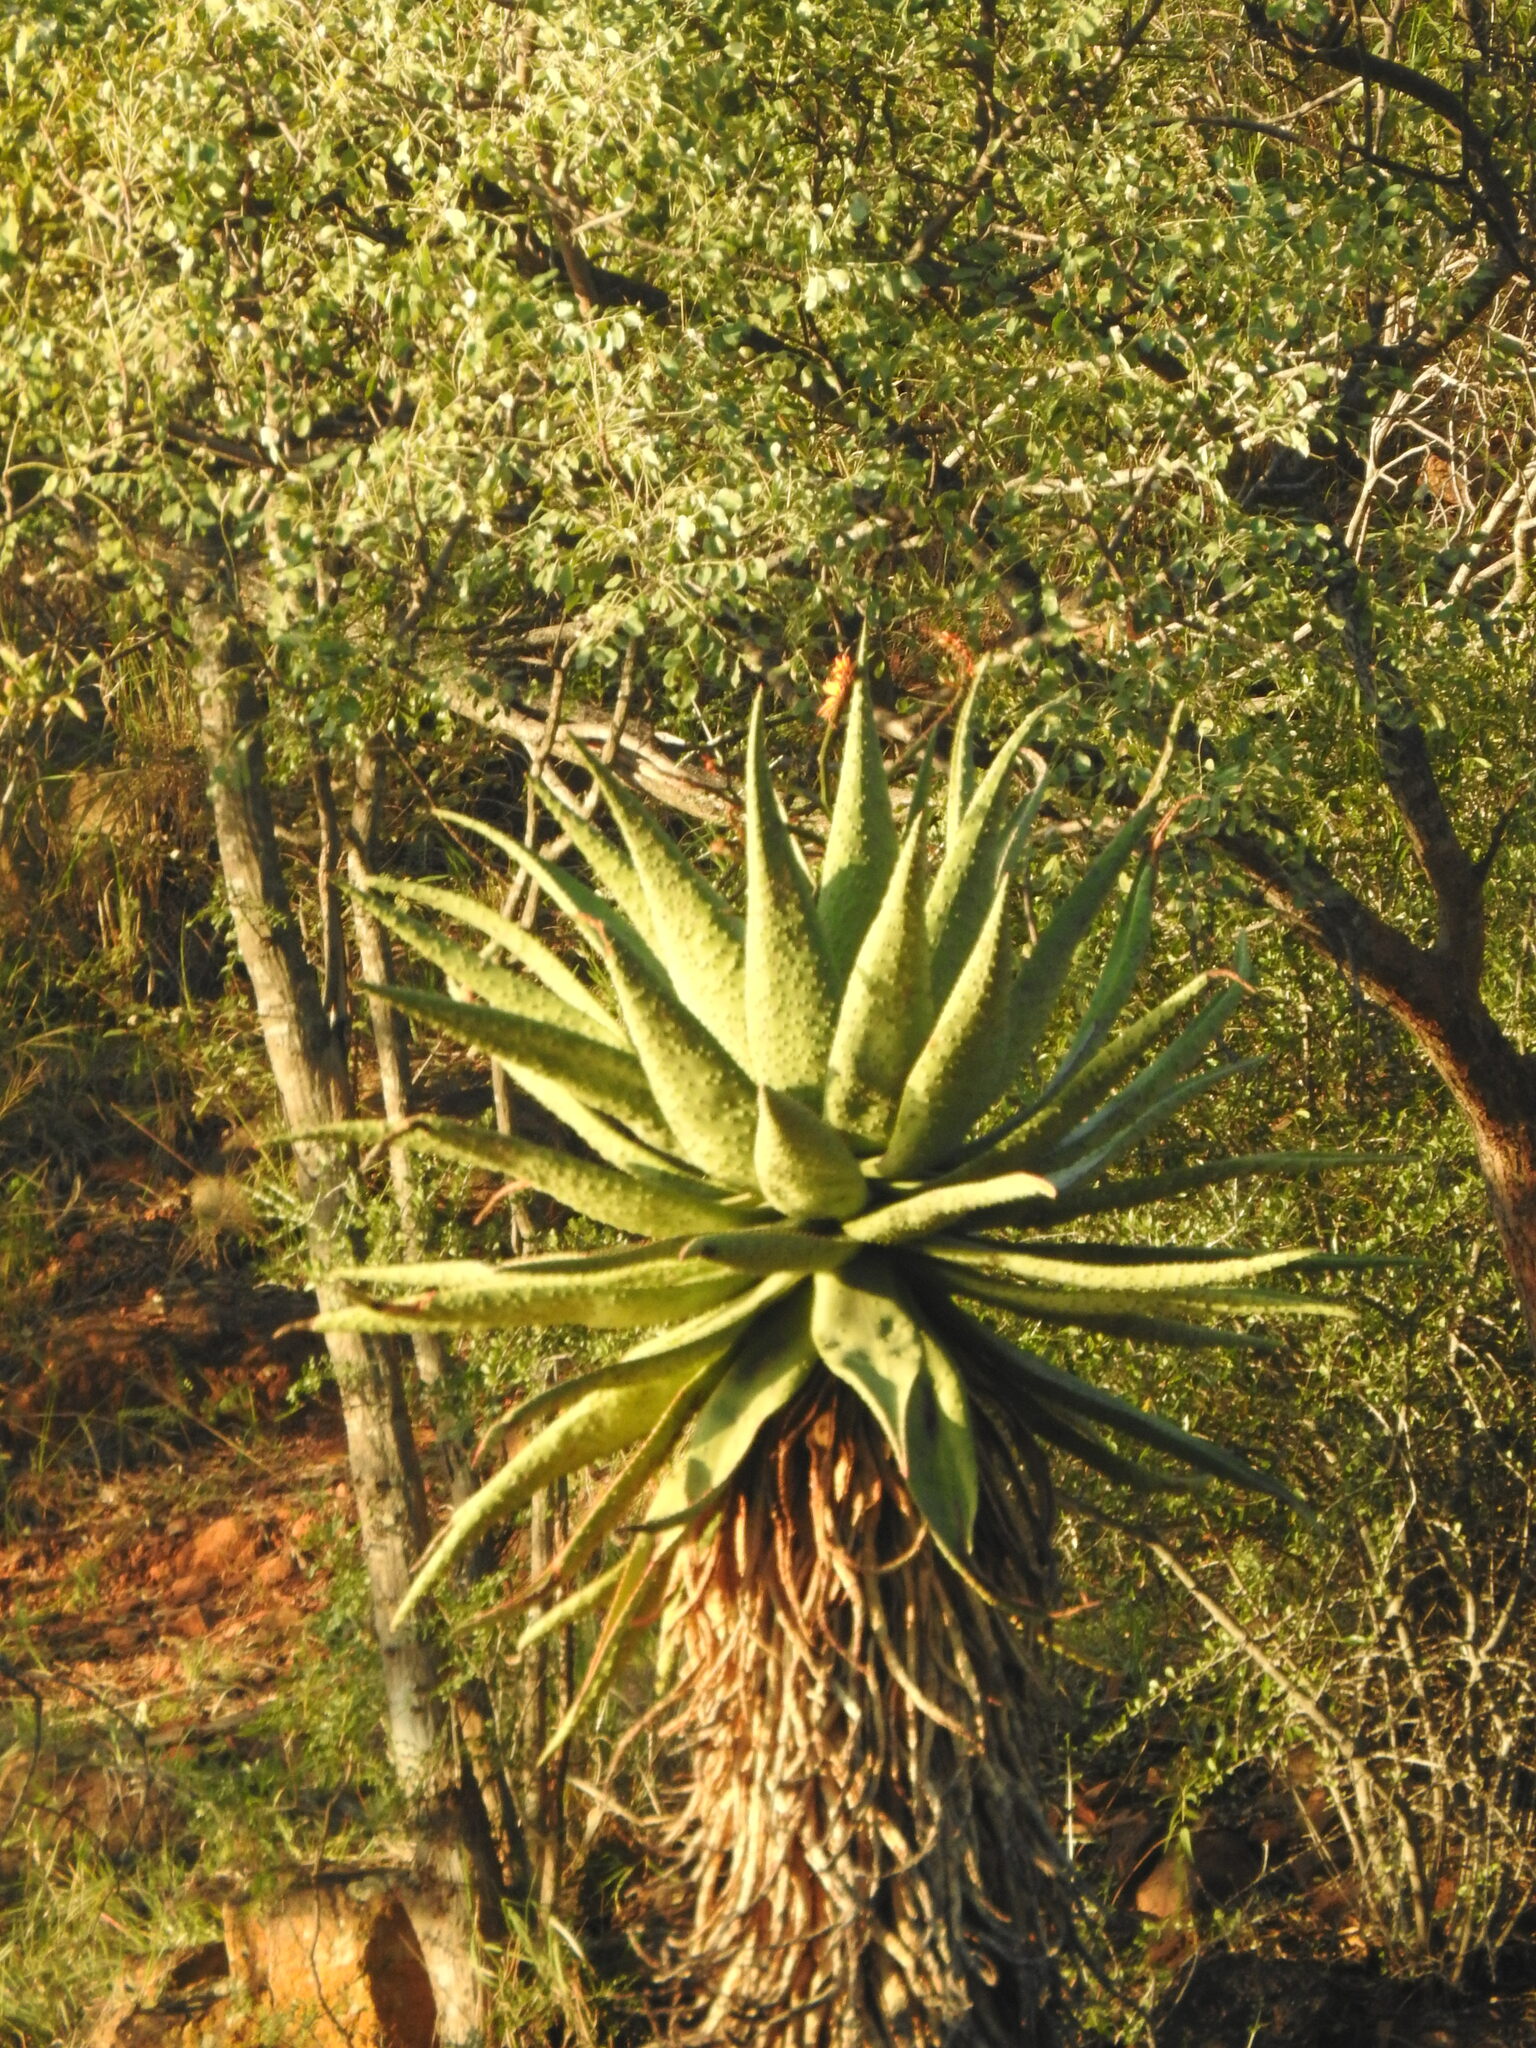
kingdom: Plantae
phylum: Tracheophyta
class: Liliopsida
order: Asparagales
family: Asphodelaceae
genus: Aloe
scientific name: Aloe marlothii
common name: Flat-flowered aloe
